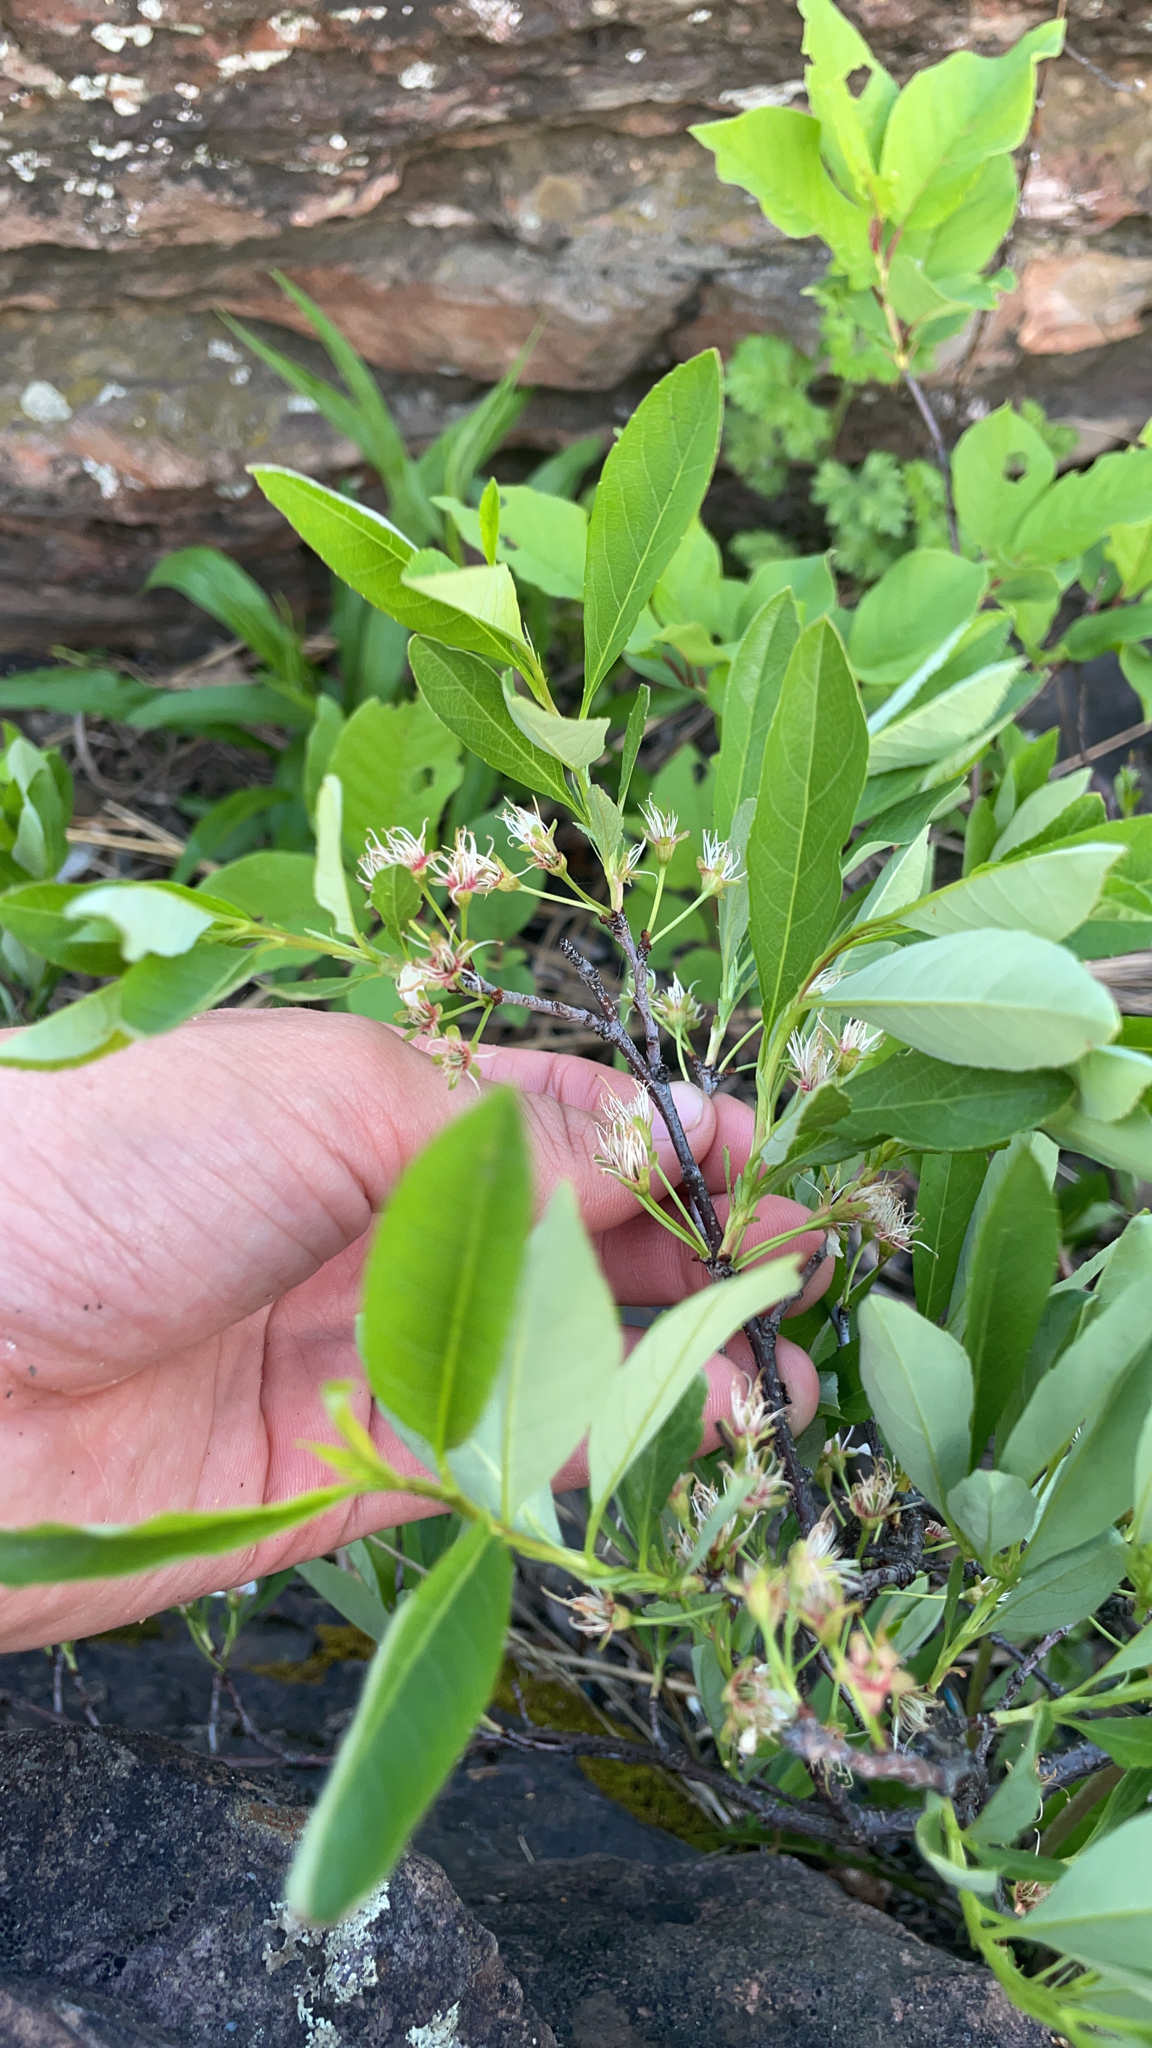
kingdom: Plantae
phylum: Tracheophyta
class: Magnoliopsida
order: Rosales
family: Rosaceae
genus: Prunus
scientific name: Prunus pumila
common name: Dwarf cherry
